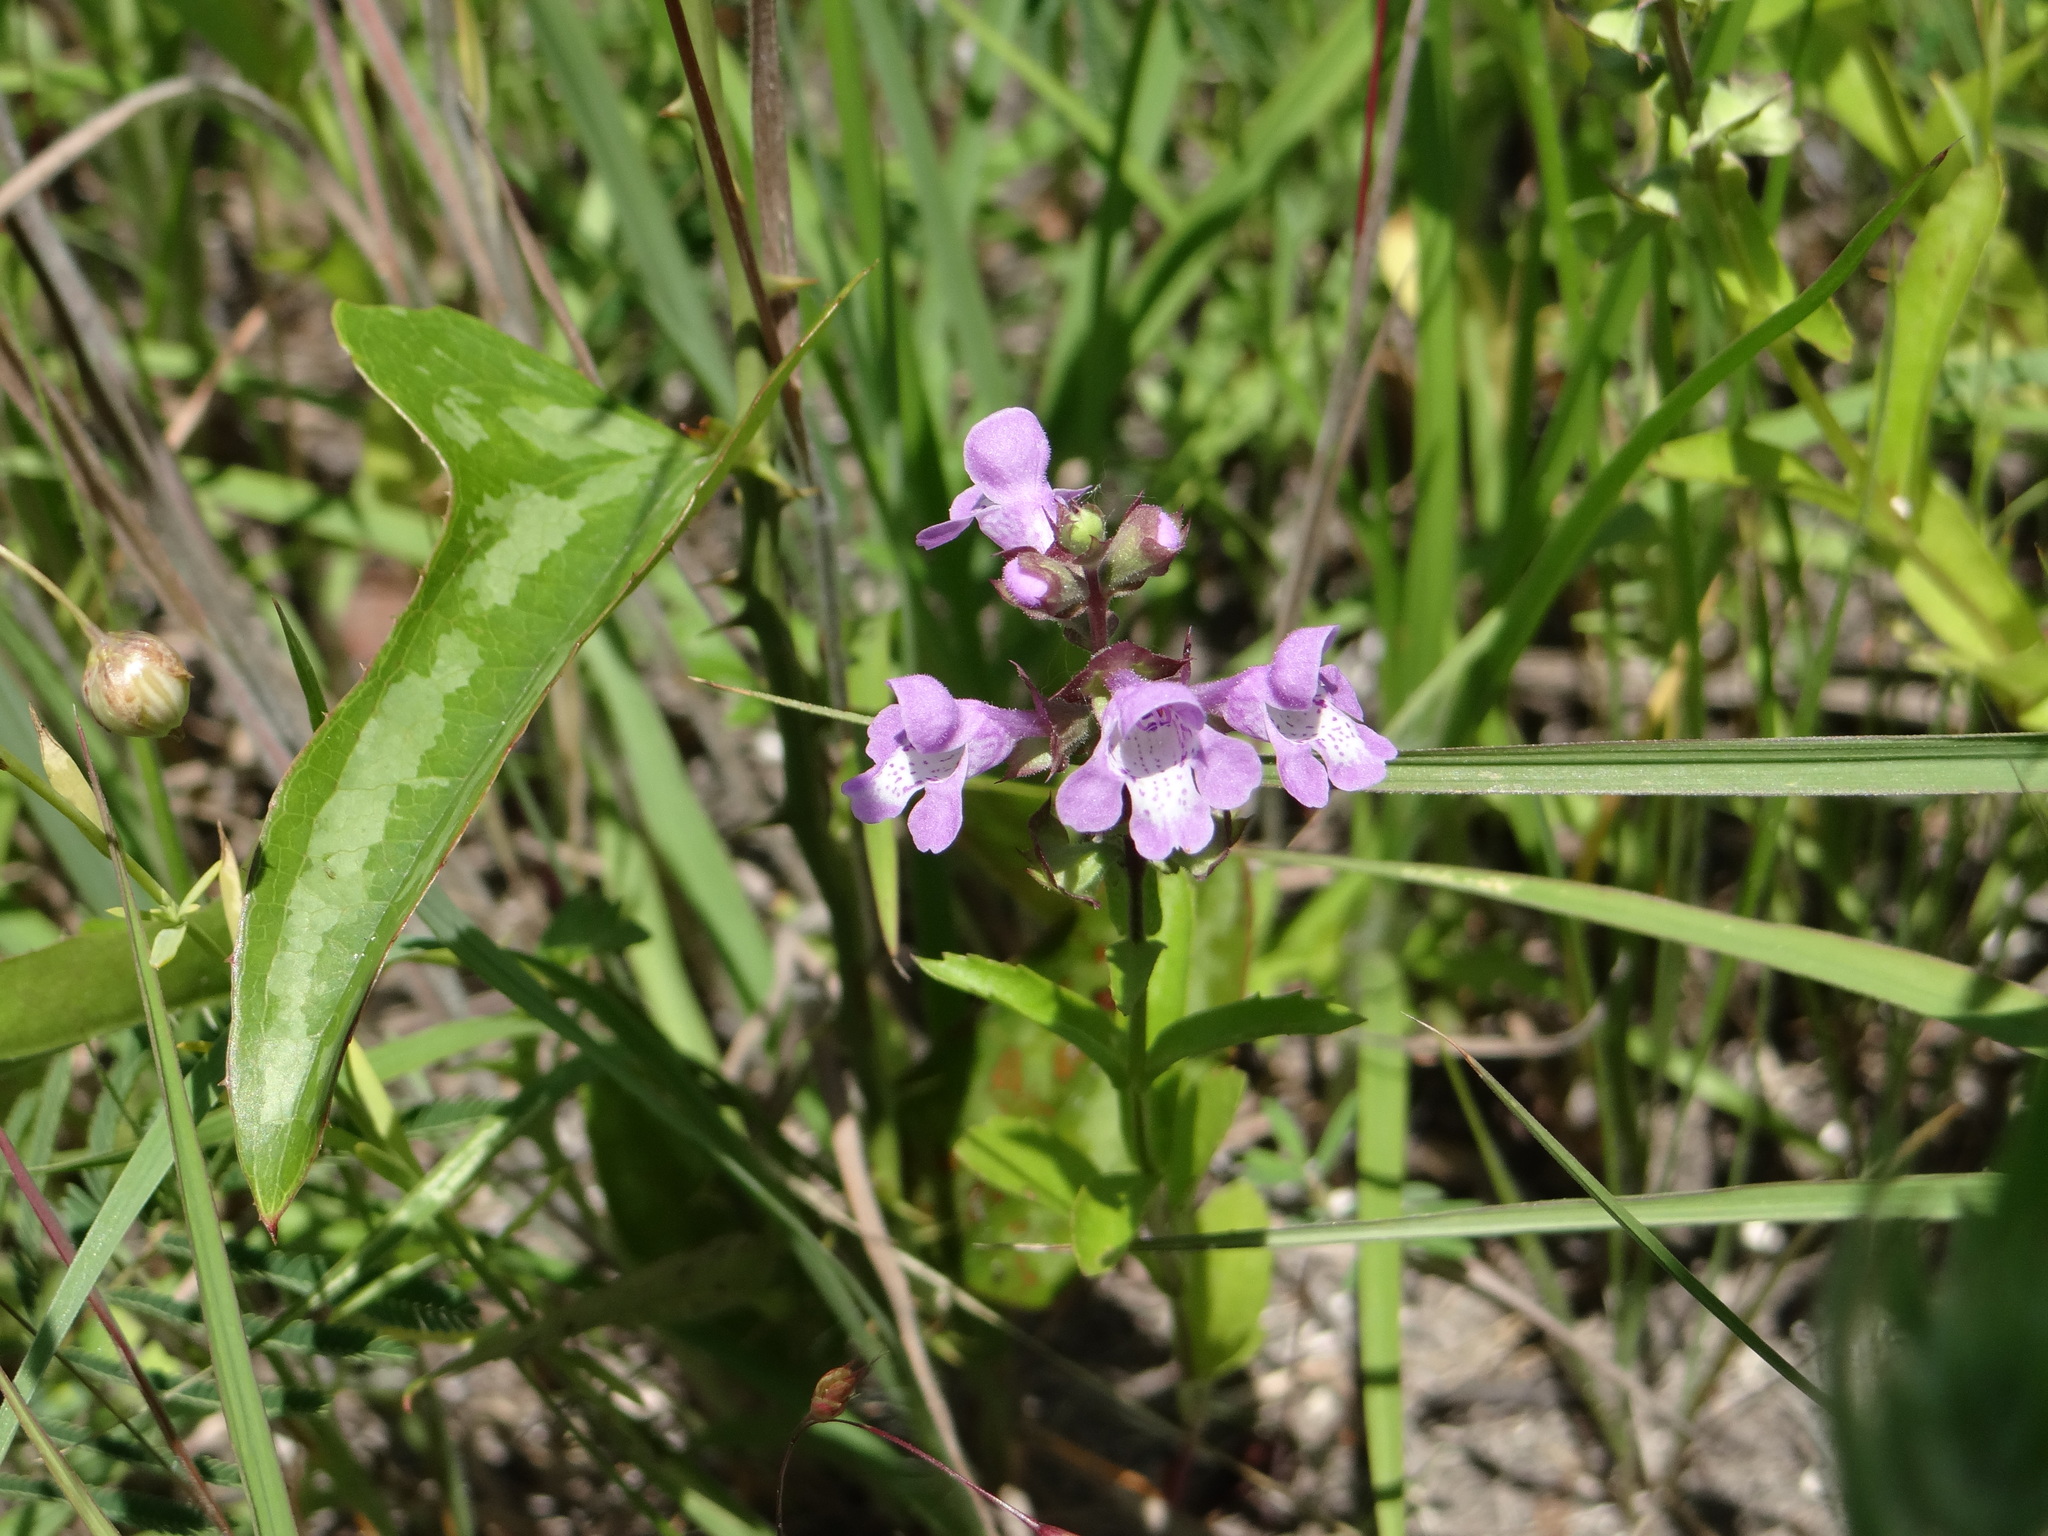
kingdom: Plantae
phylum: Tracheophyta
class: Magnoliopsida
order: Lamiales
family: Lamiaceae
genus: Warnockia
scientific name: Warnockia scutellarioides
